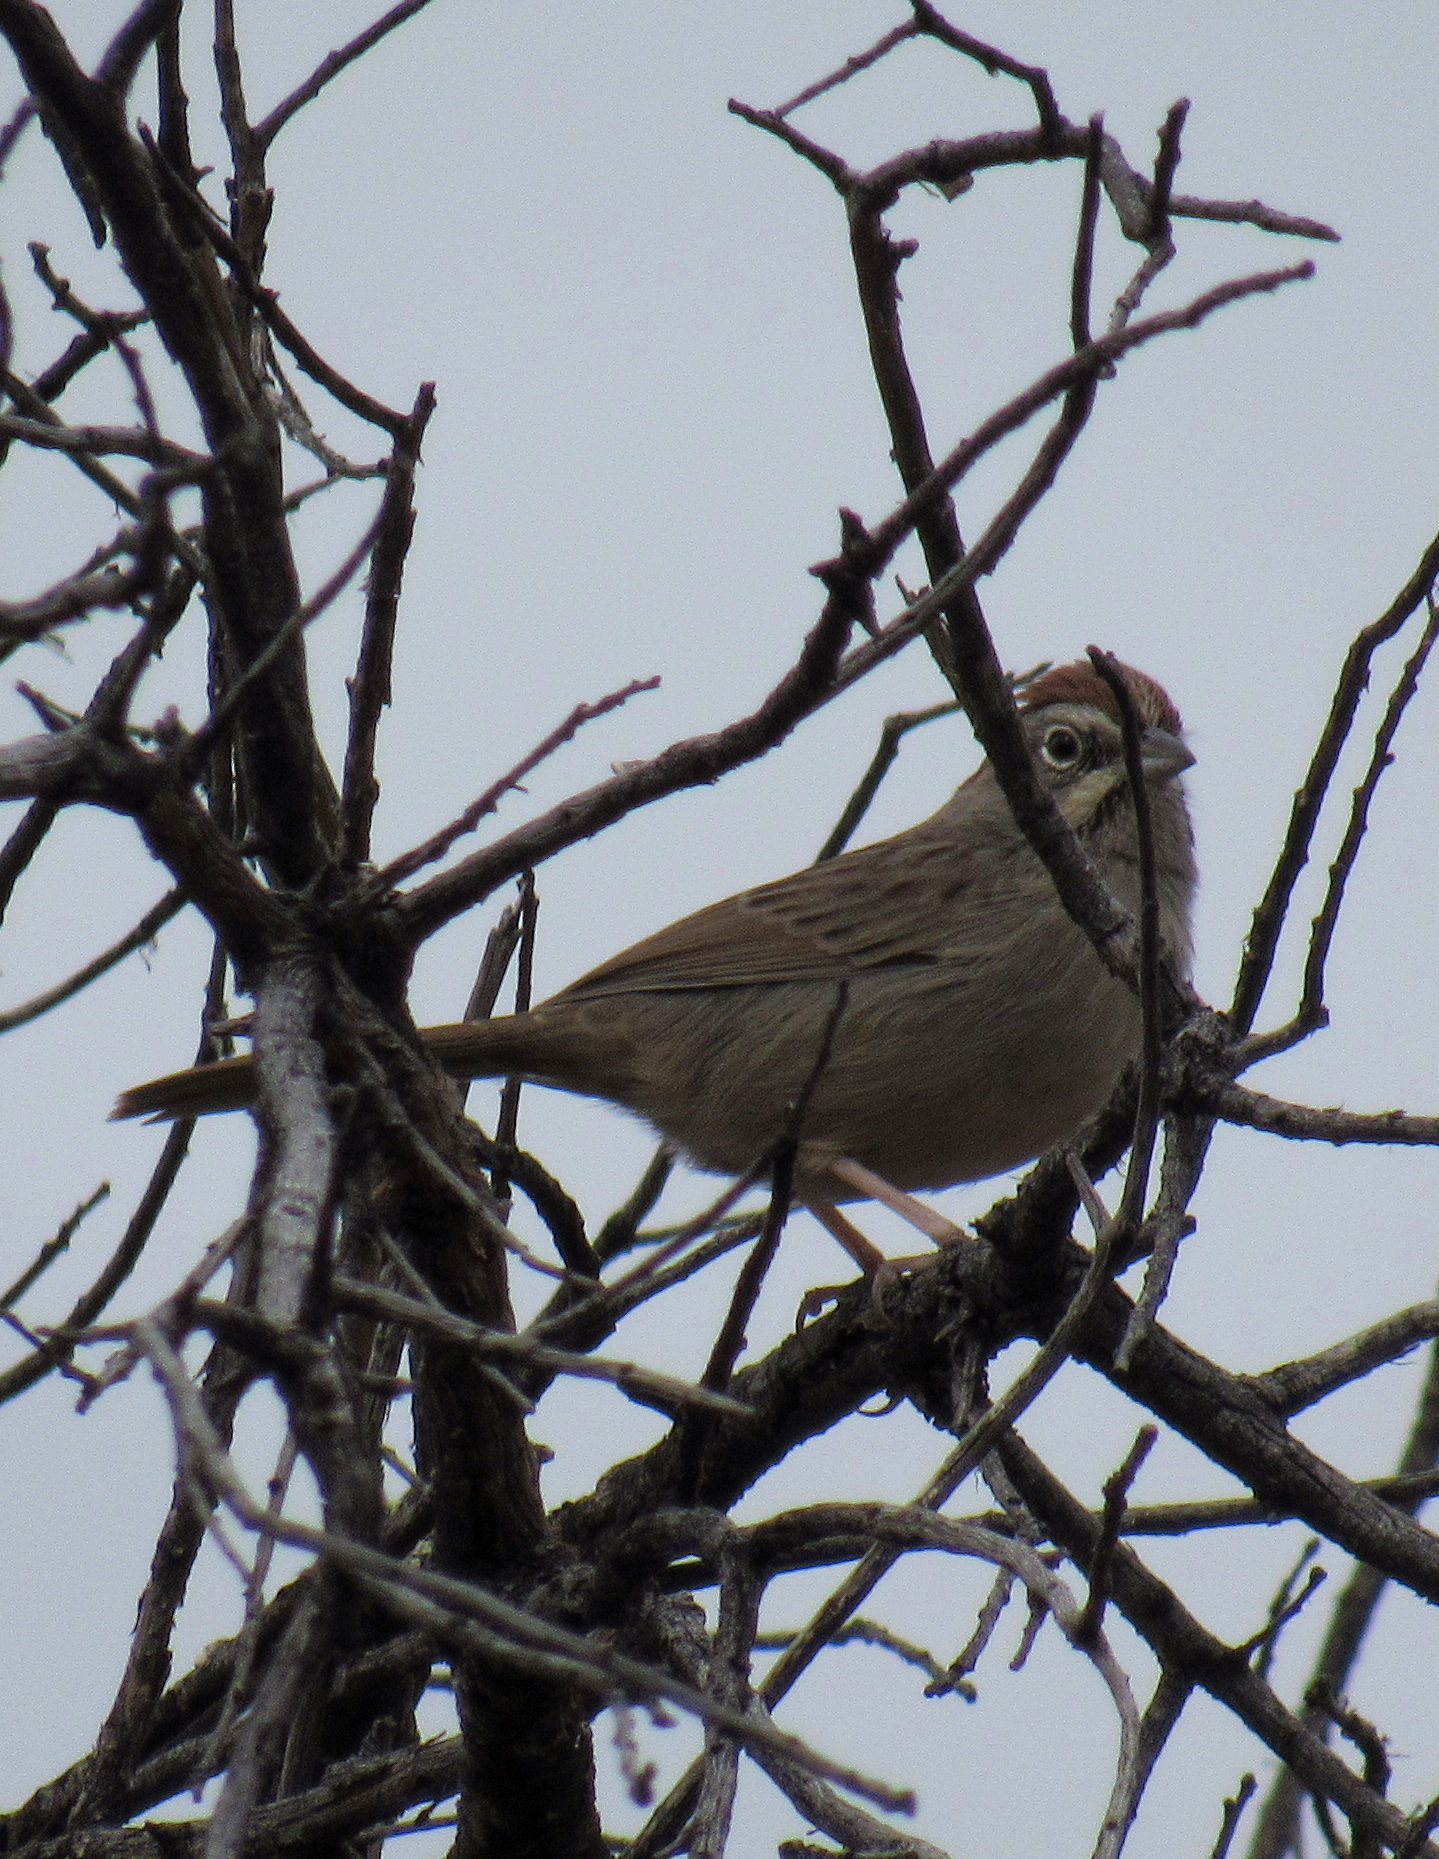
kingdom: Animalia
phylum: Chordata
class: Aves
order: Passeriformes
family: Passerellidae
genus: Aimophila
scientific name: Aimophila ruficeps
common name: Rufous-crowned sparrow
